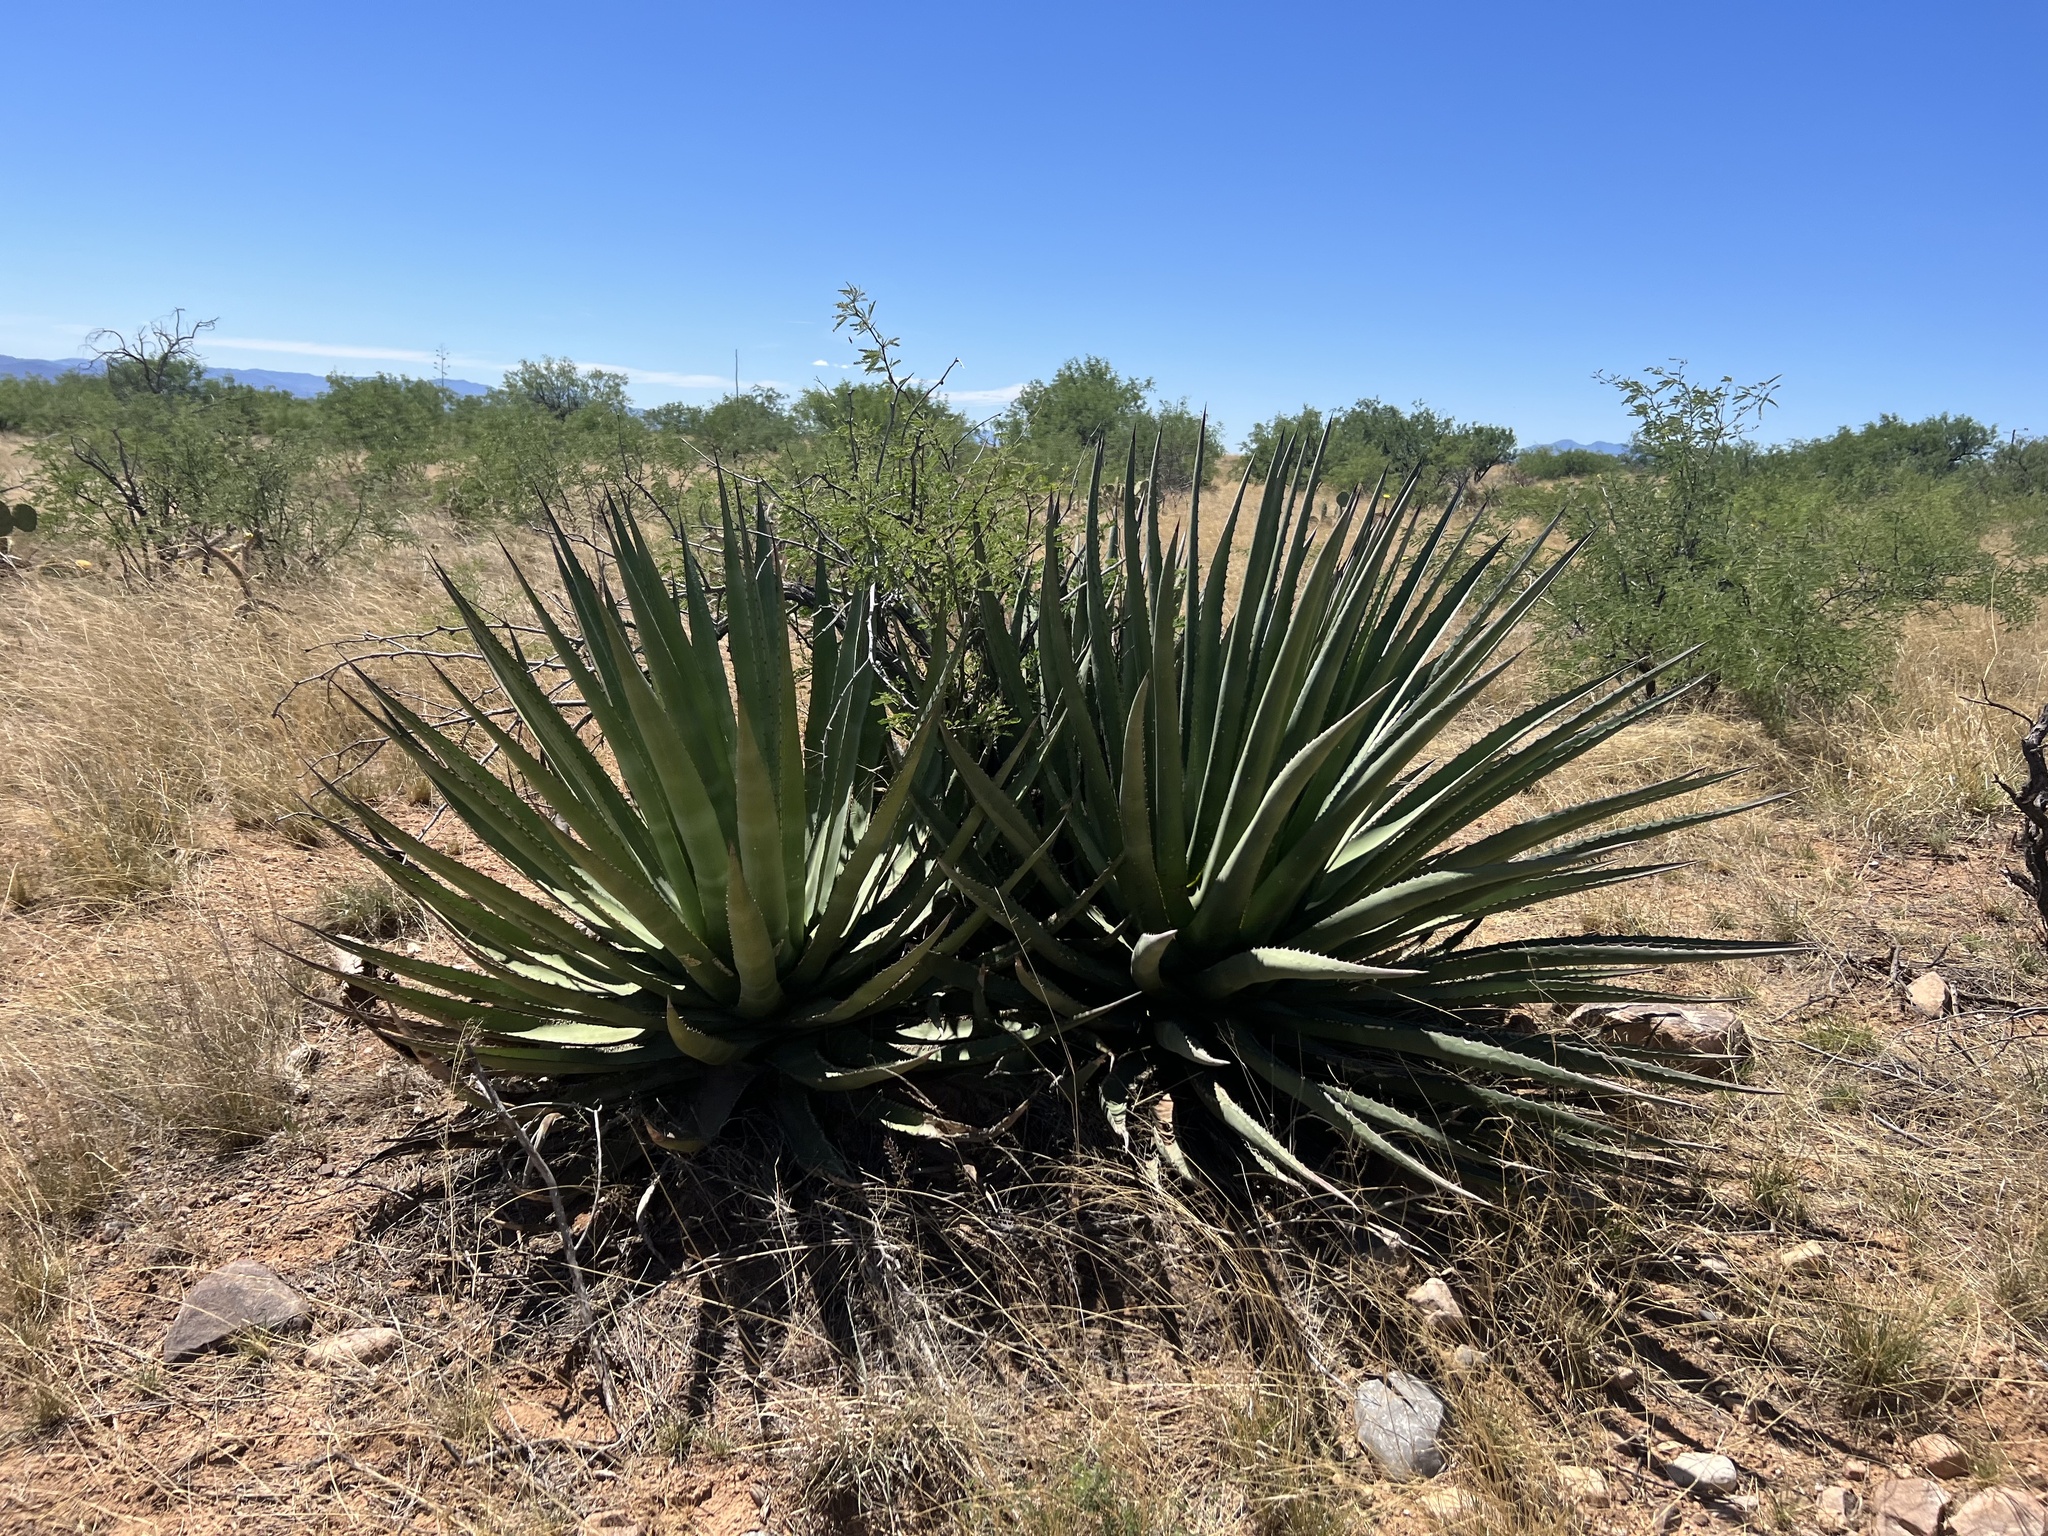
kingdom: Plantae
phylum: Tracheophyta
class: Liliopsida
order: Asparagales
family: Asparagaceae
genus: Agave
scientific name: Agave palmeri
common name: Palmer agave
